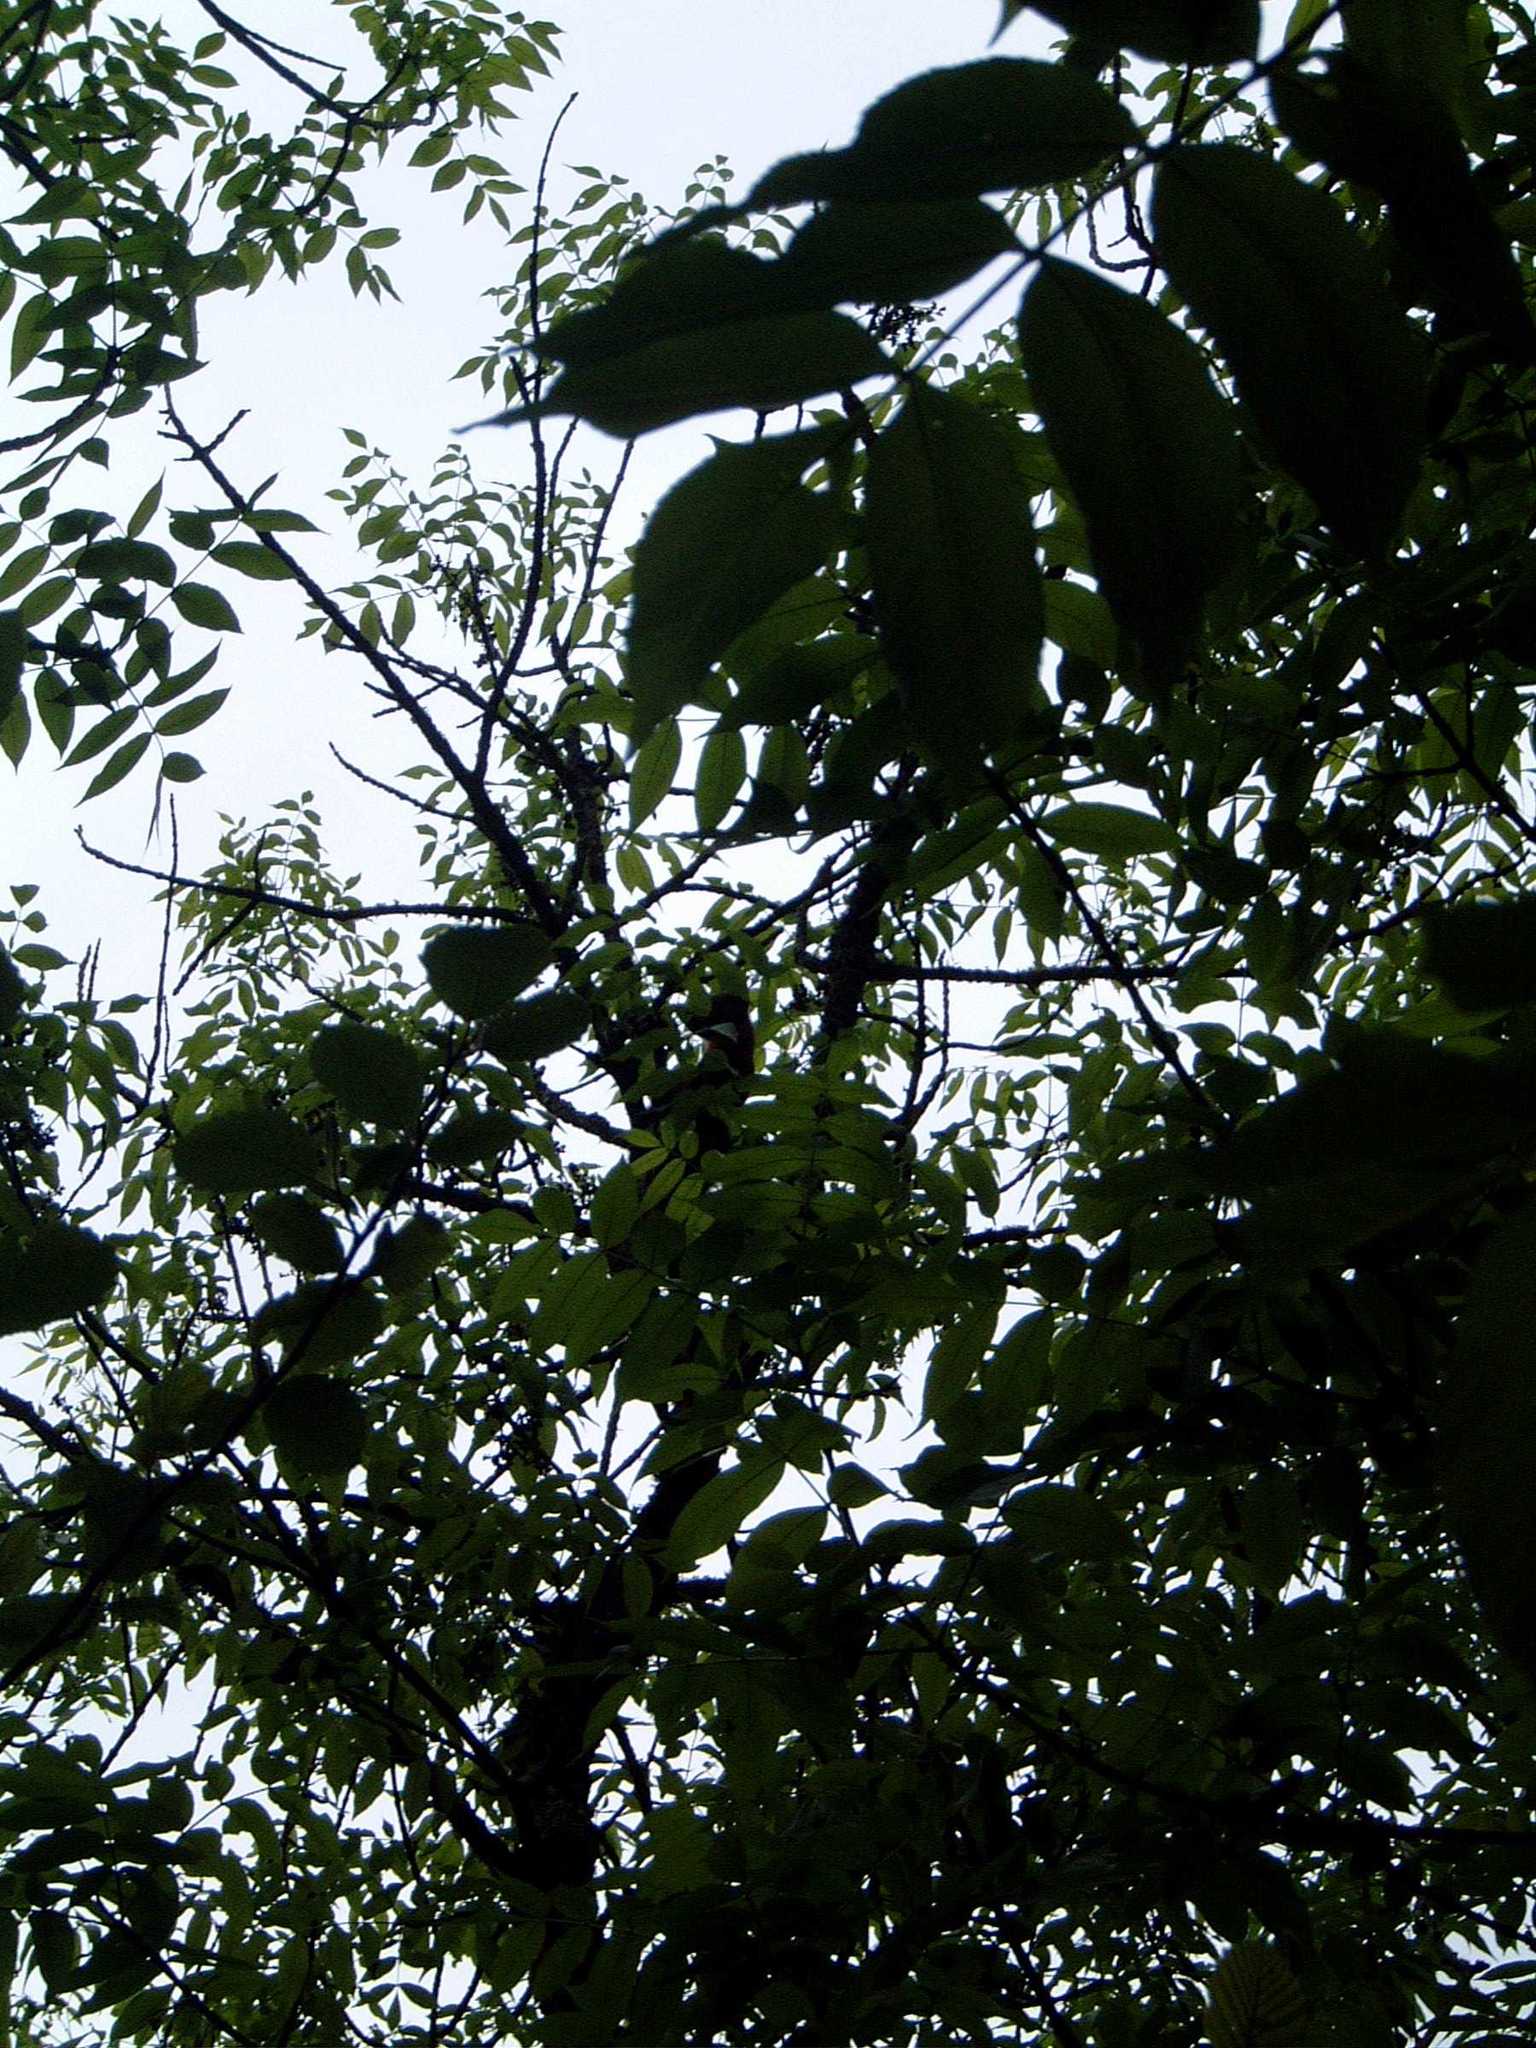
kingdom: Plantae
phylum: Tracheophyta
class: Magnoliopsida
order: Lamiales
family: Oleaceae
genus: Fraxinus
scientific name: Fraxinus nigra
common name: Black ash
